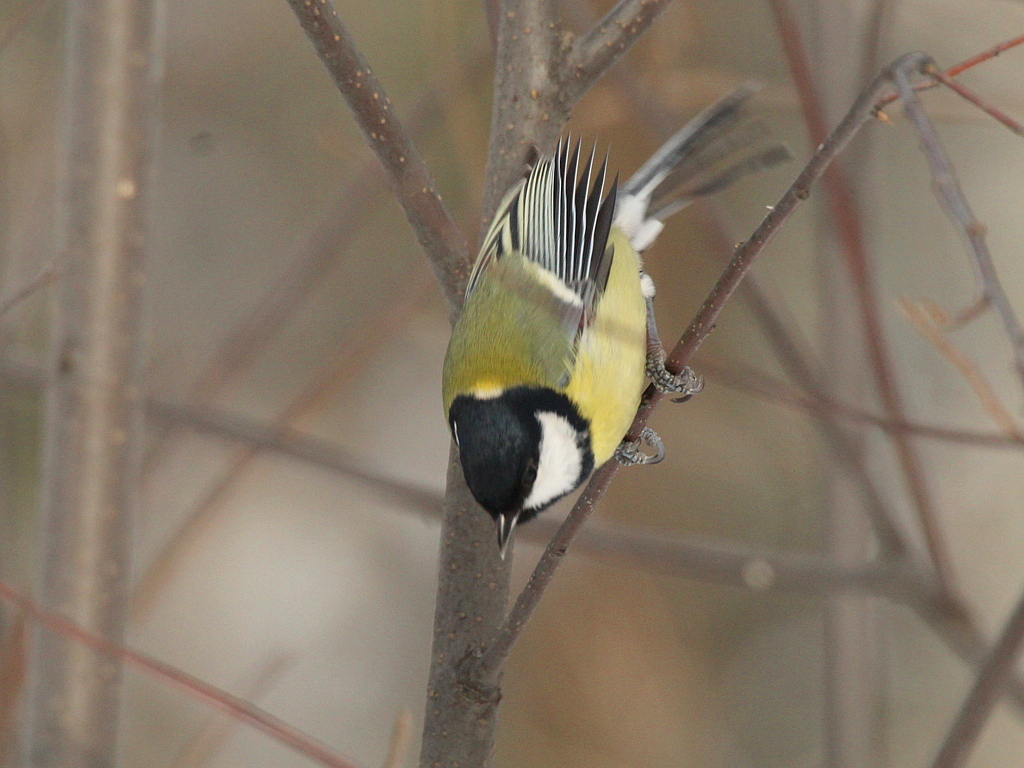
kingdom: Animalia
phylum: Chordata
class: Aves
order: Passeriformes
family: Paridae
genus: Parus
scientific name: Parus major
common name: Great tit
